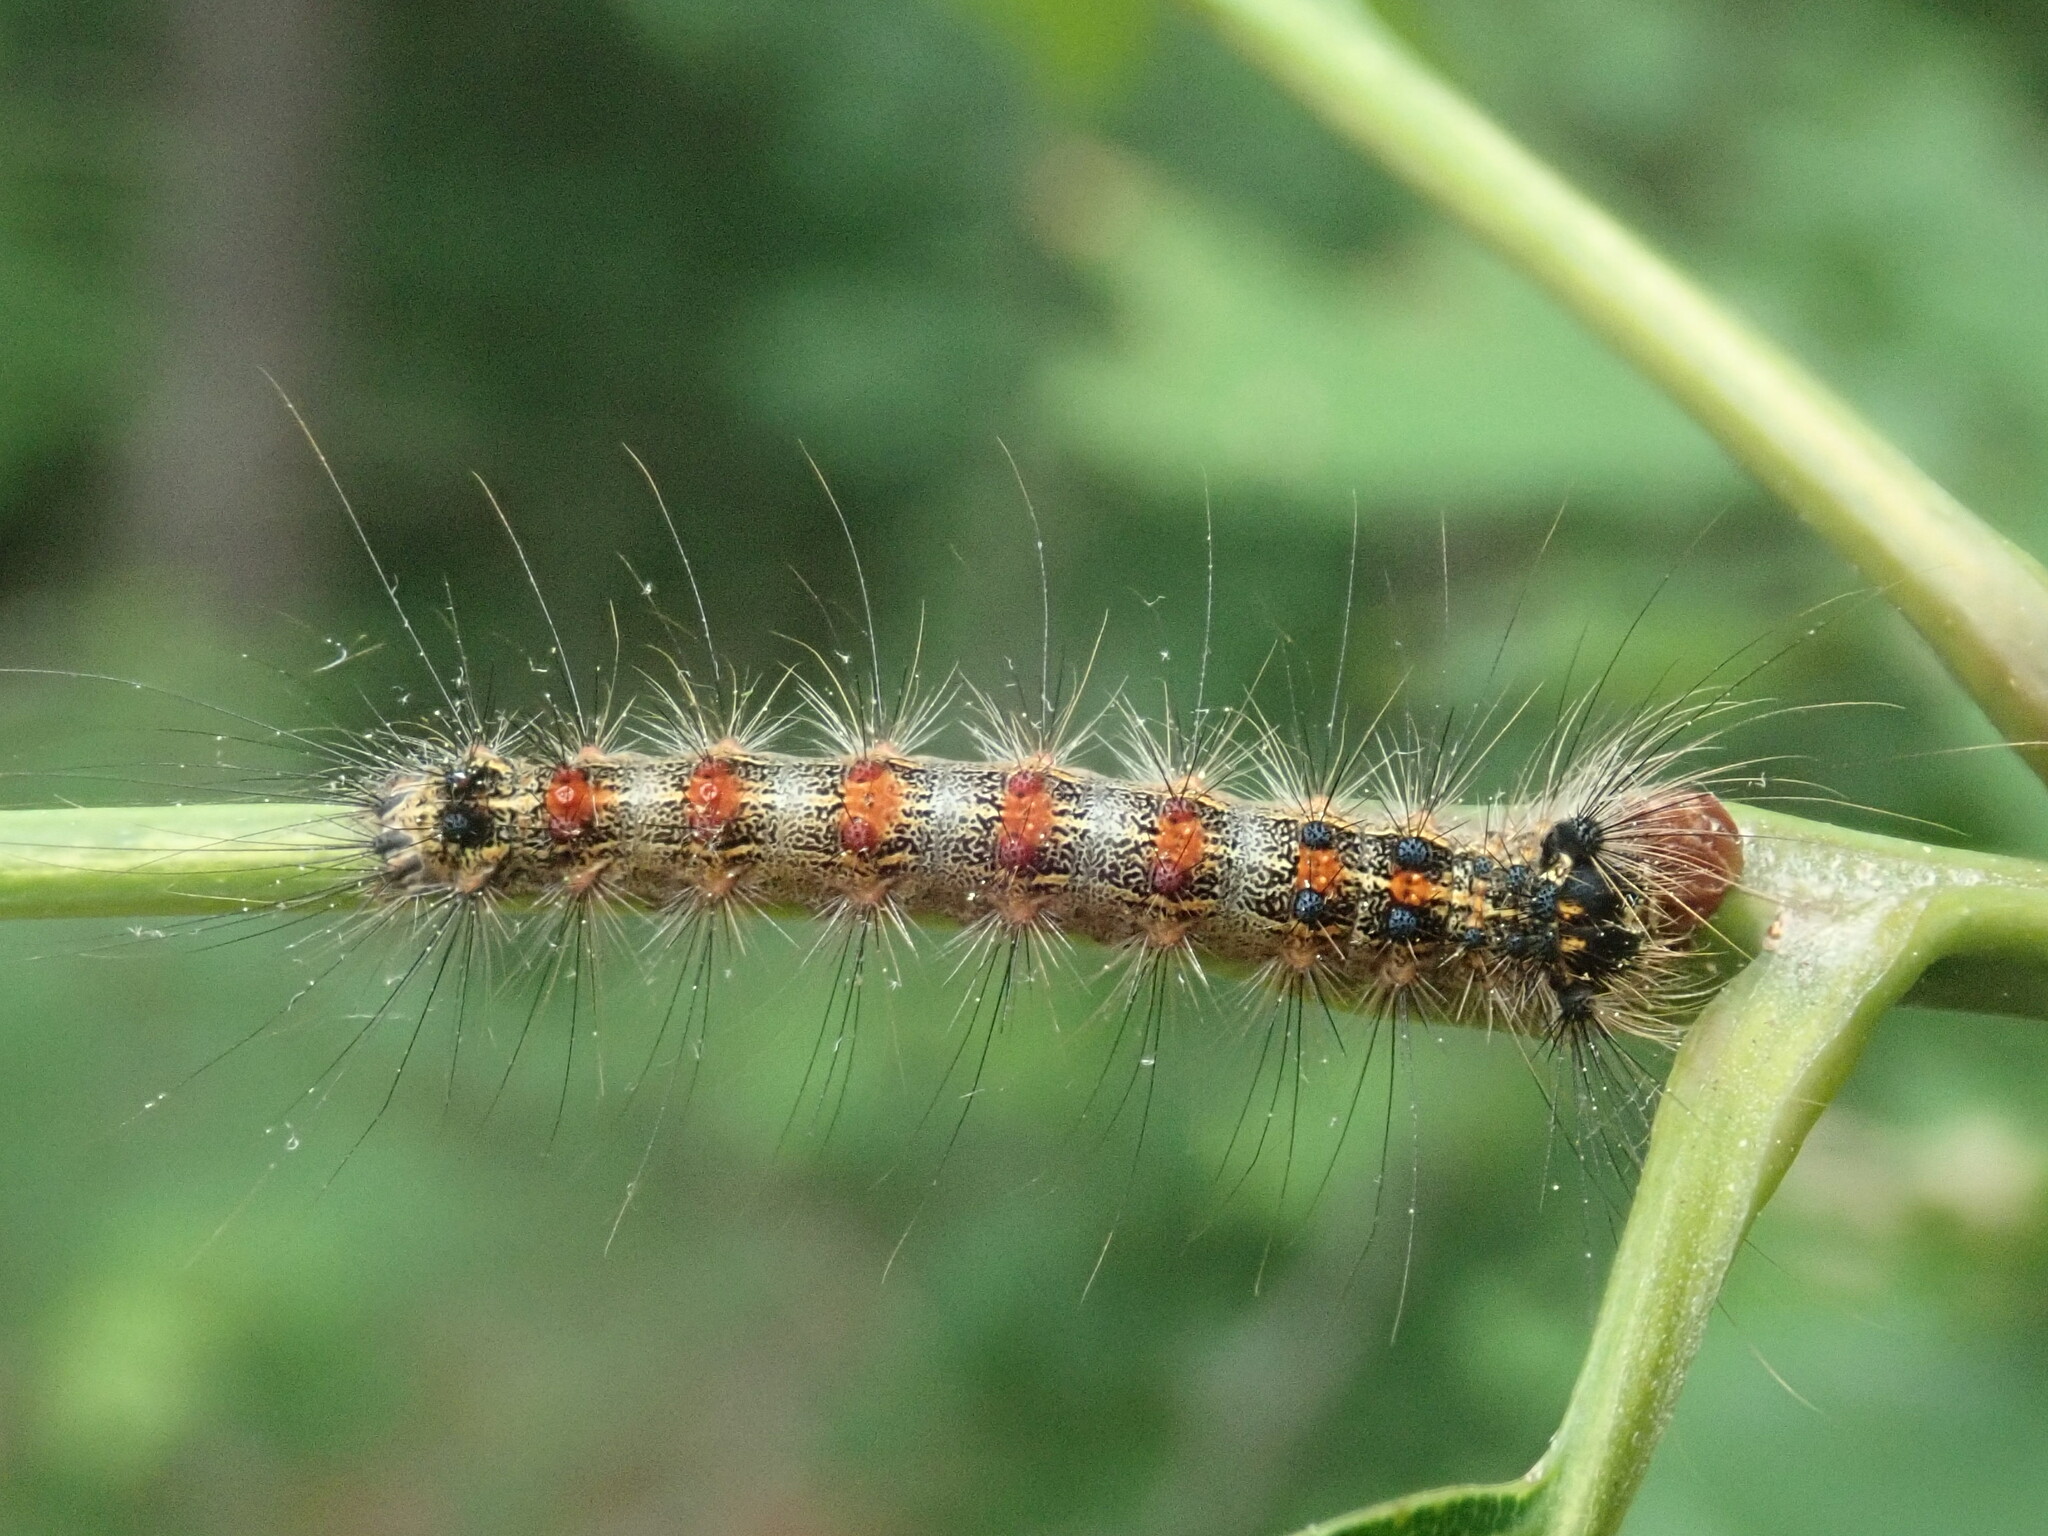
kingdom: Animalia
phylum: Arthropoda
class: Insecta
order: Lepidoptera
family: Erebidae
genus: Lymantria
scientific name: Lymantria dispar
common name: Gypsy moth
